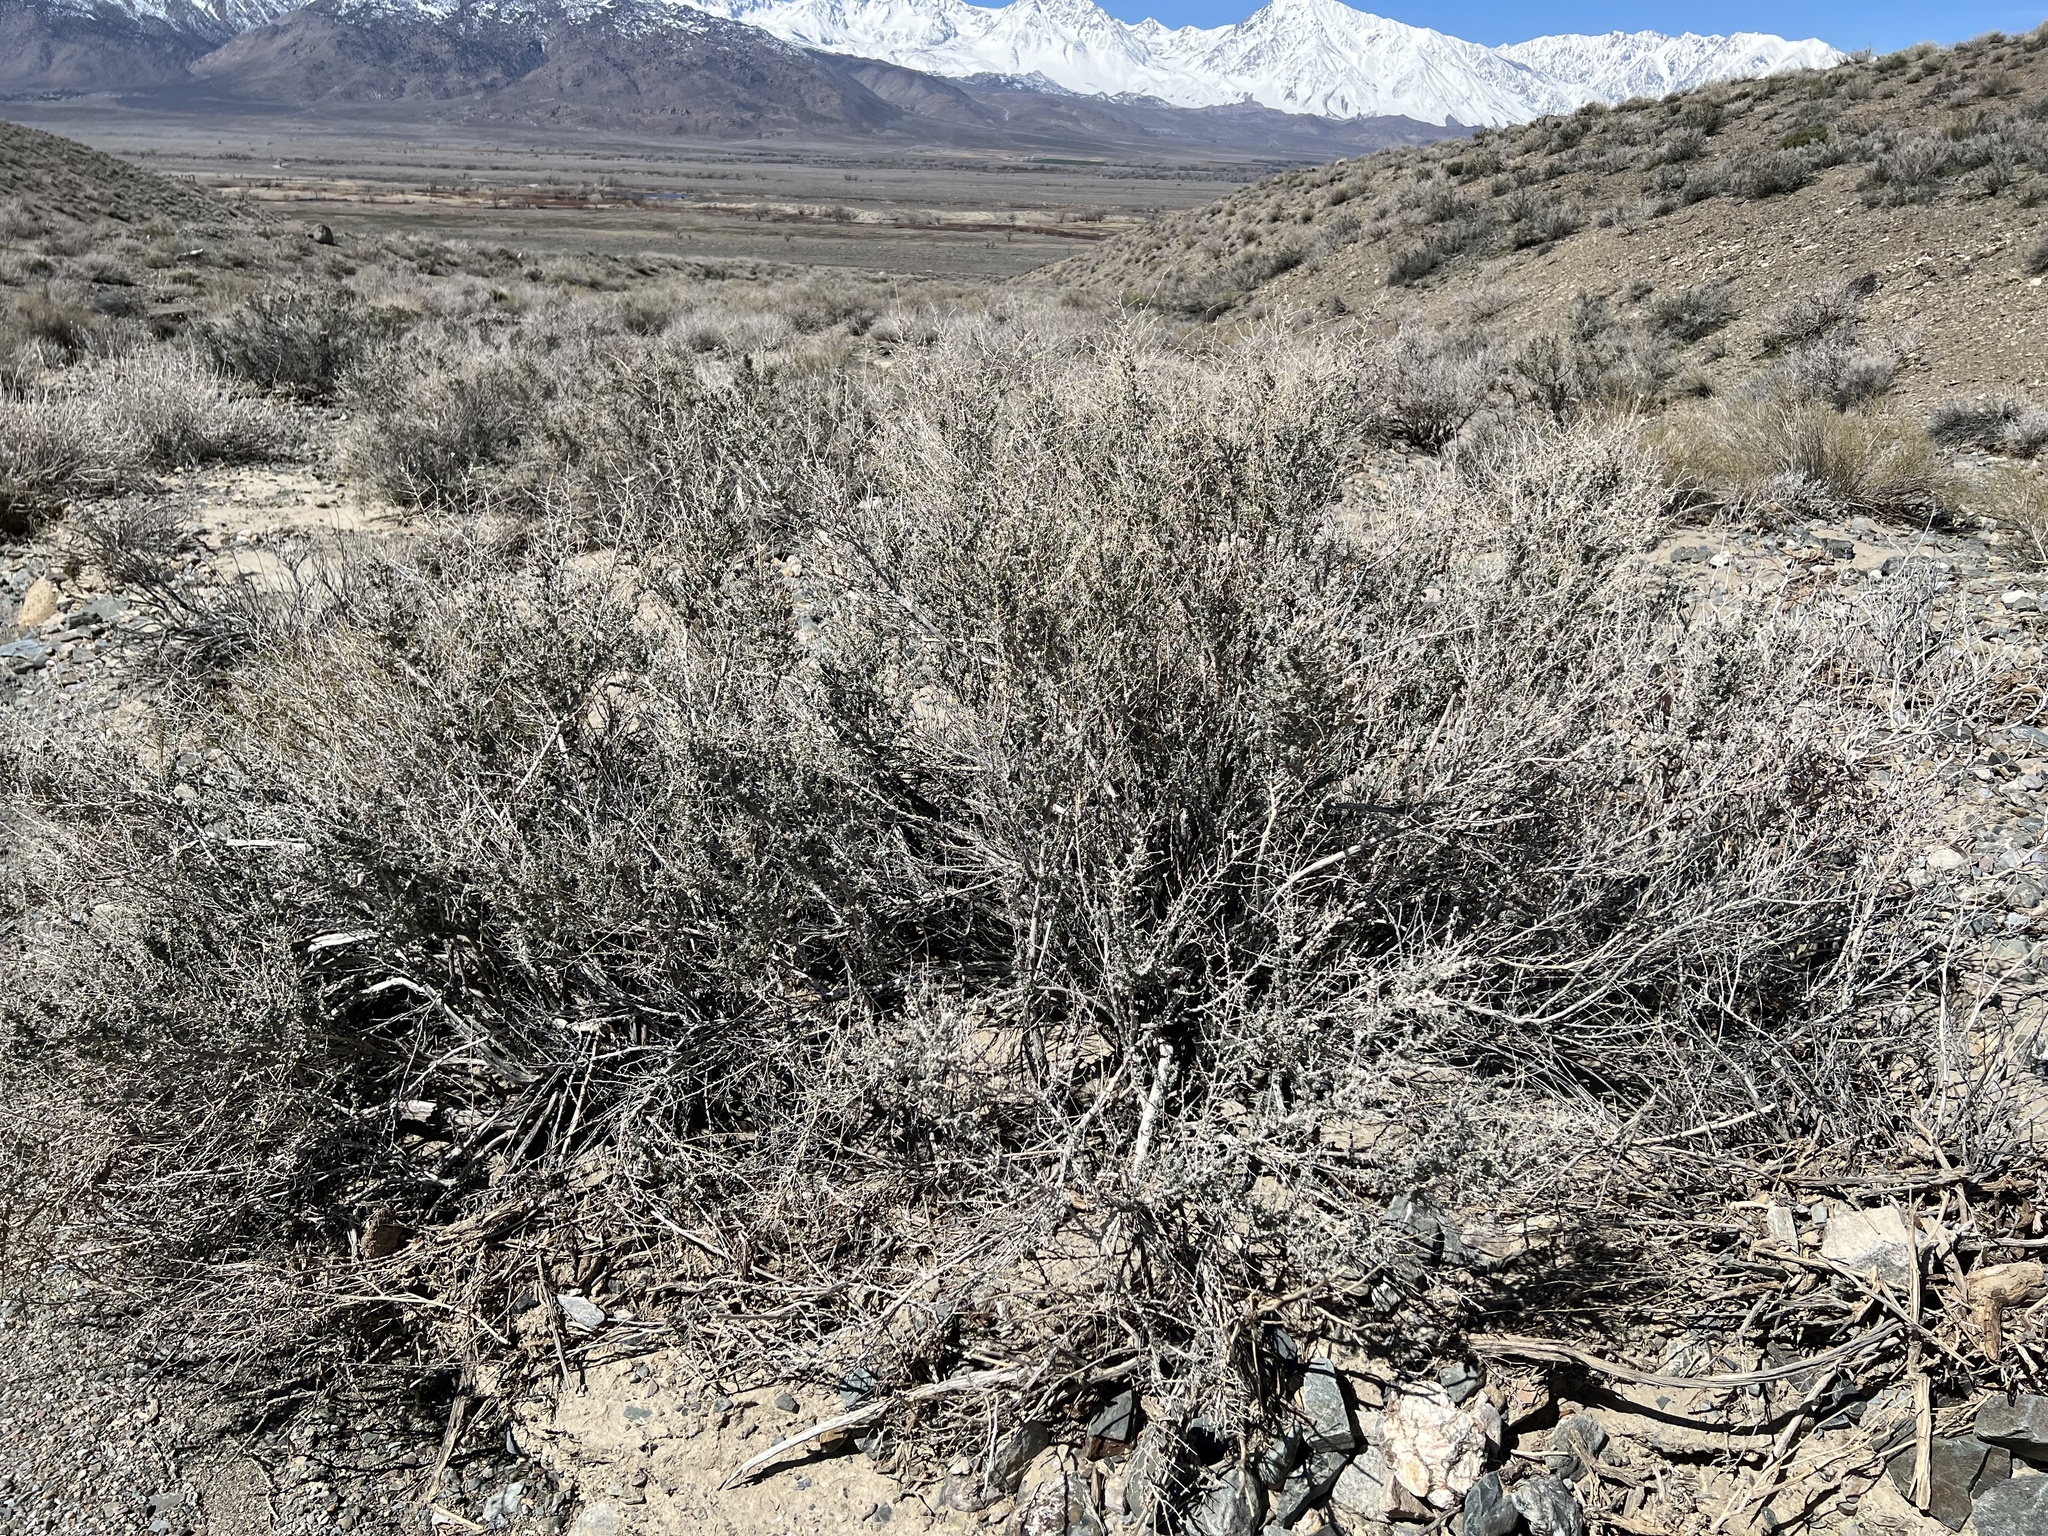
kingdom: Plantae
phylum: Tracheophyta
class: Magnoliopsida
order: Caryophyllales
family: Amaranthaceae
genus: Atriplex
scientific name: Atriplex polycarpa
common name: Desert saltbush
